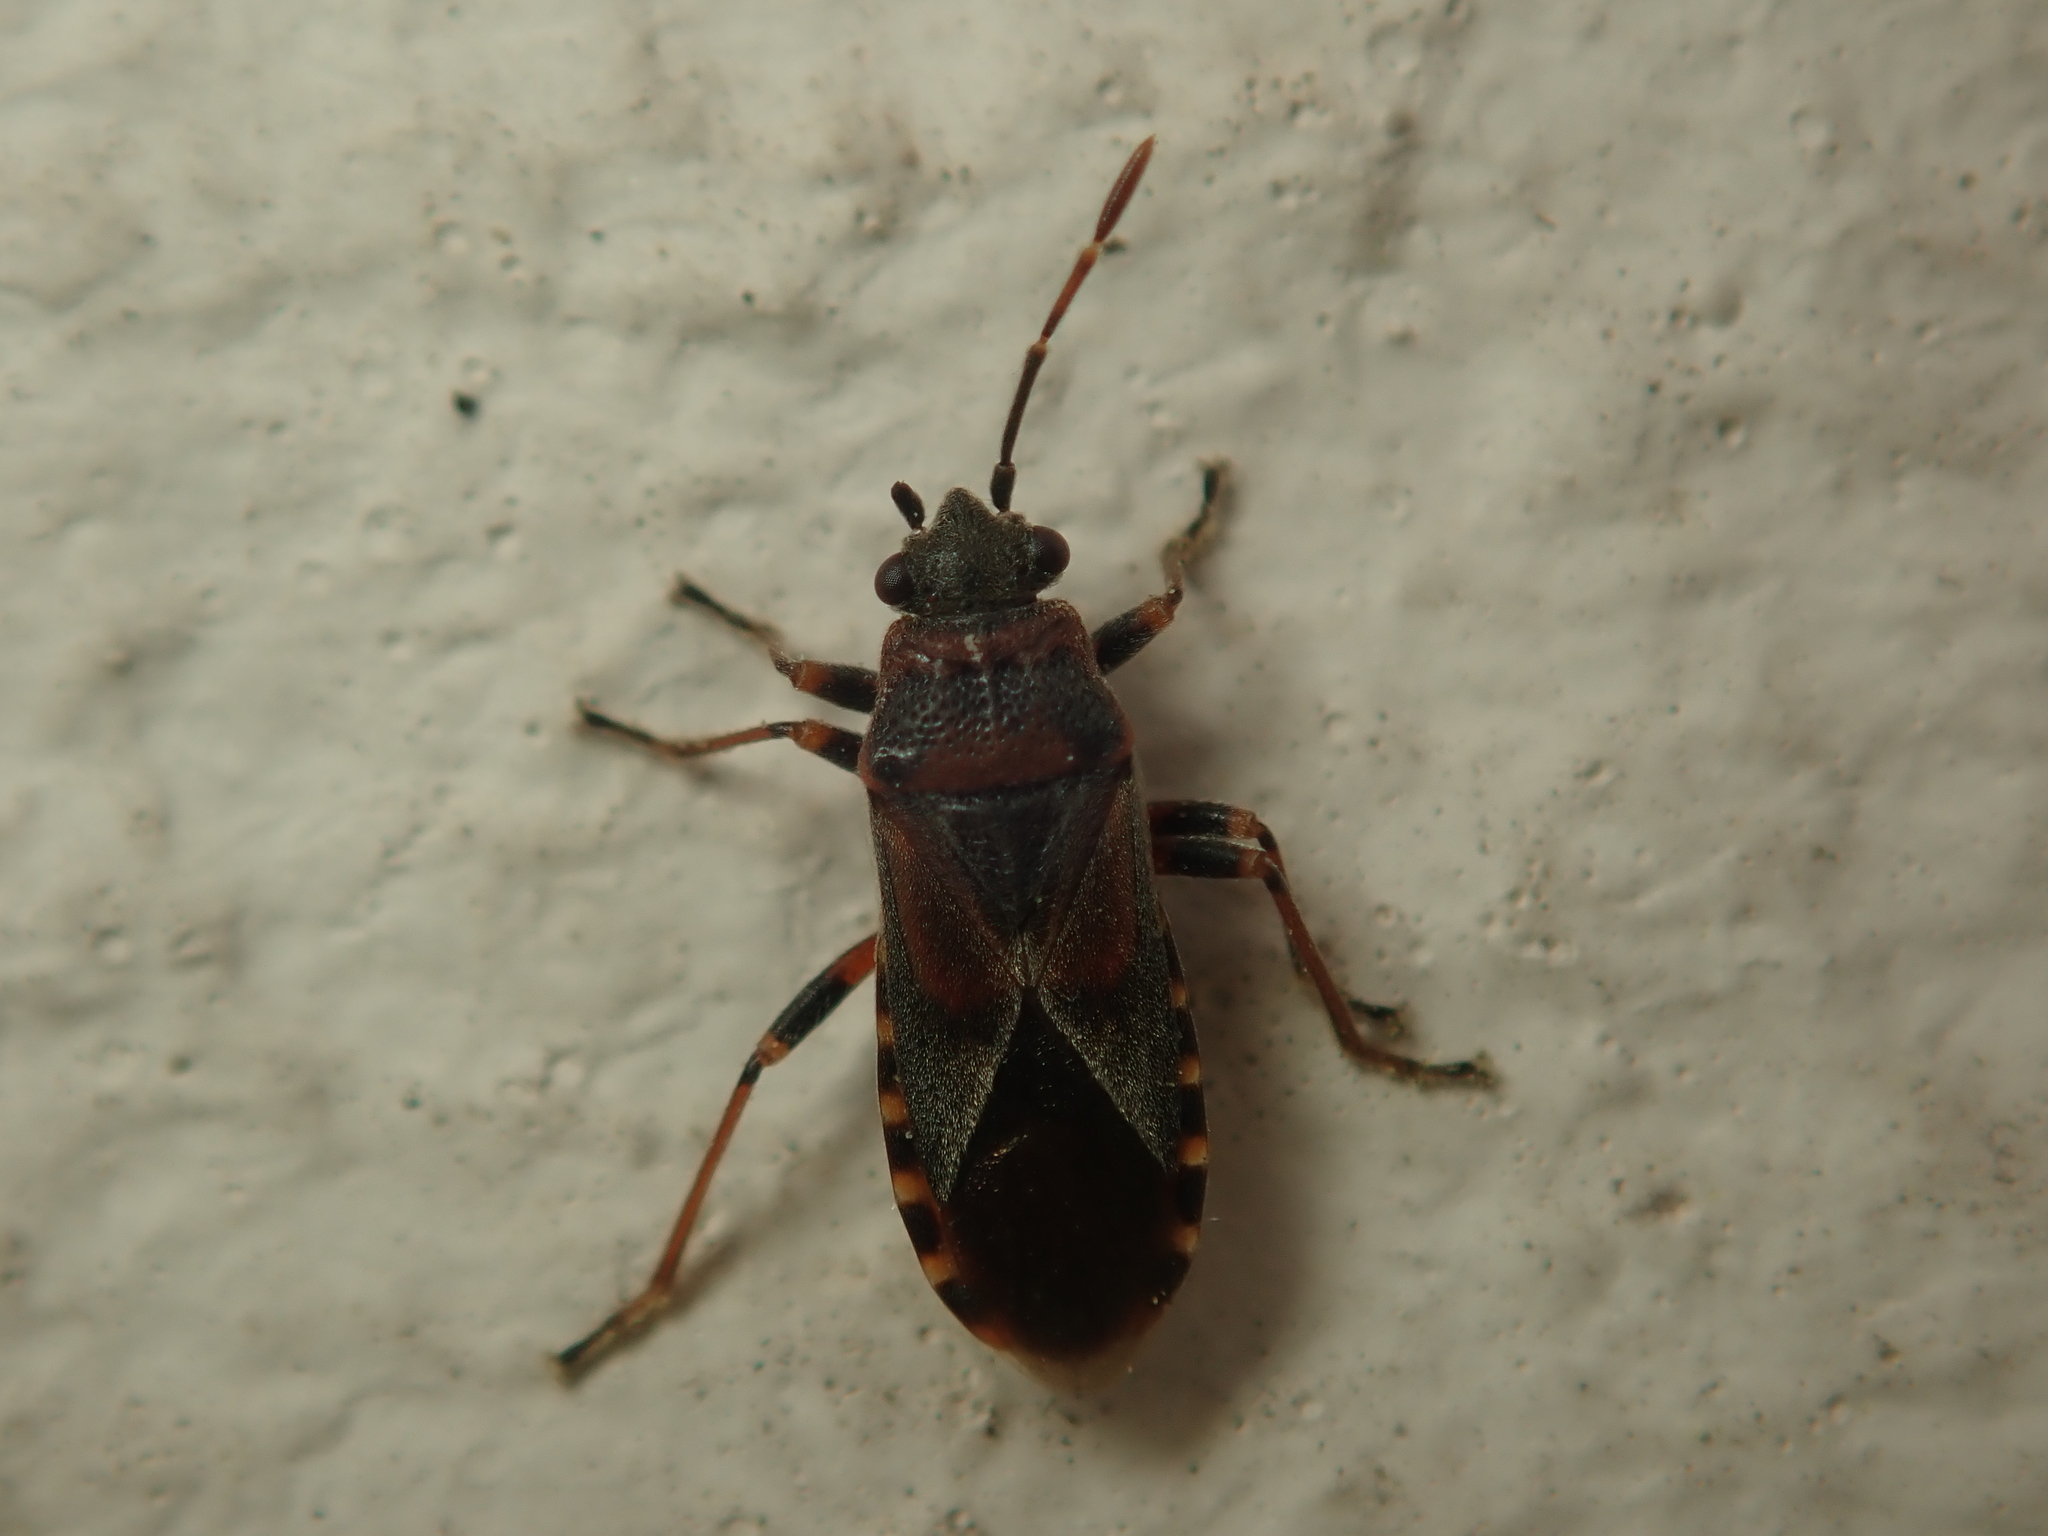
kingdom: Animalia
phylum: Arthropoda
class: Insecta
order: Hemiptera
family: Lygaeidae
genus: Arocatus
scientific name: Arocatus melanocephalus
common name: Lygaeid bug
